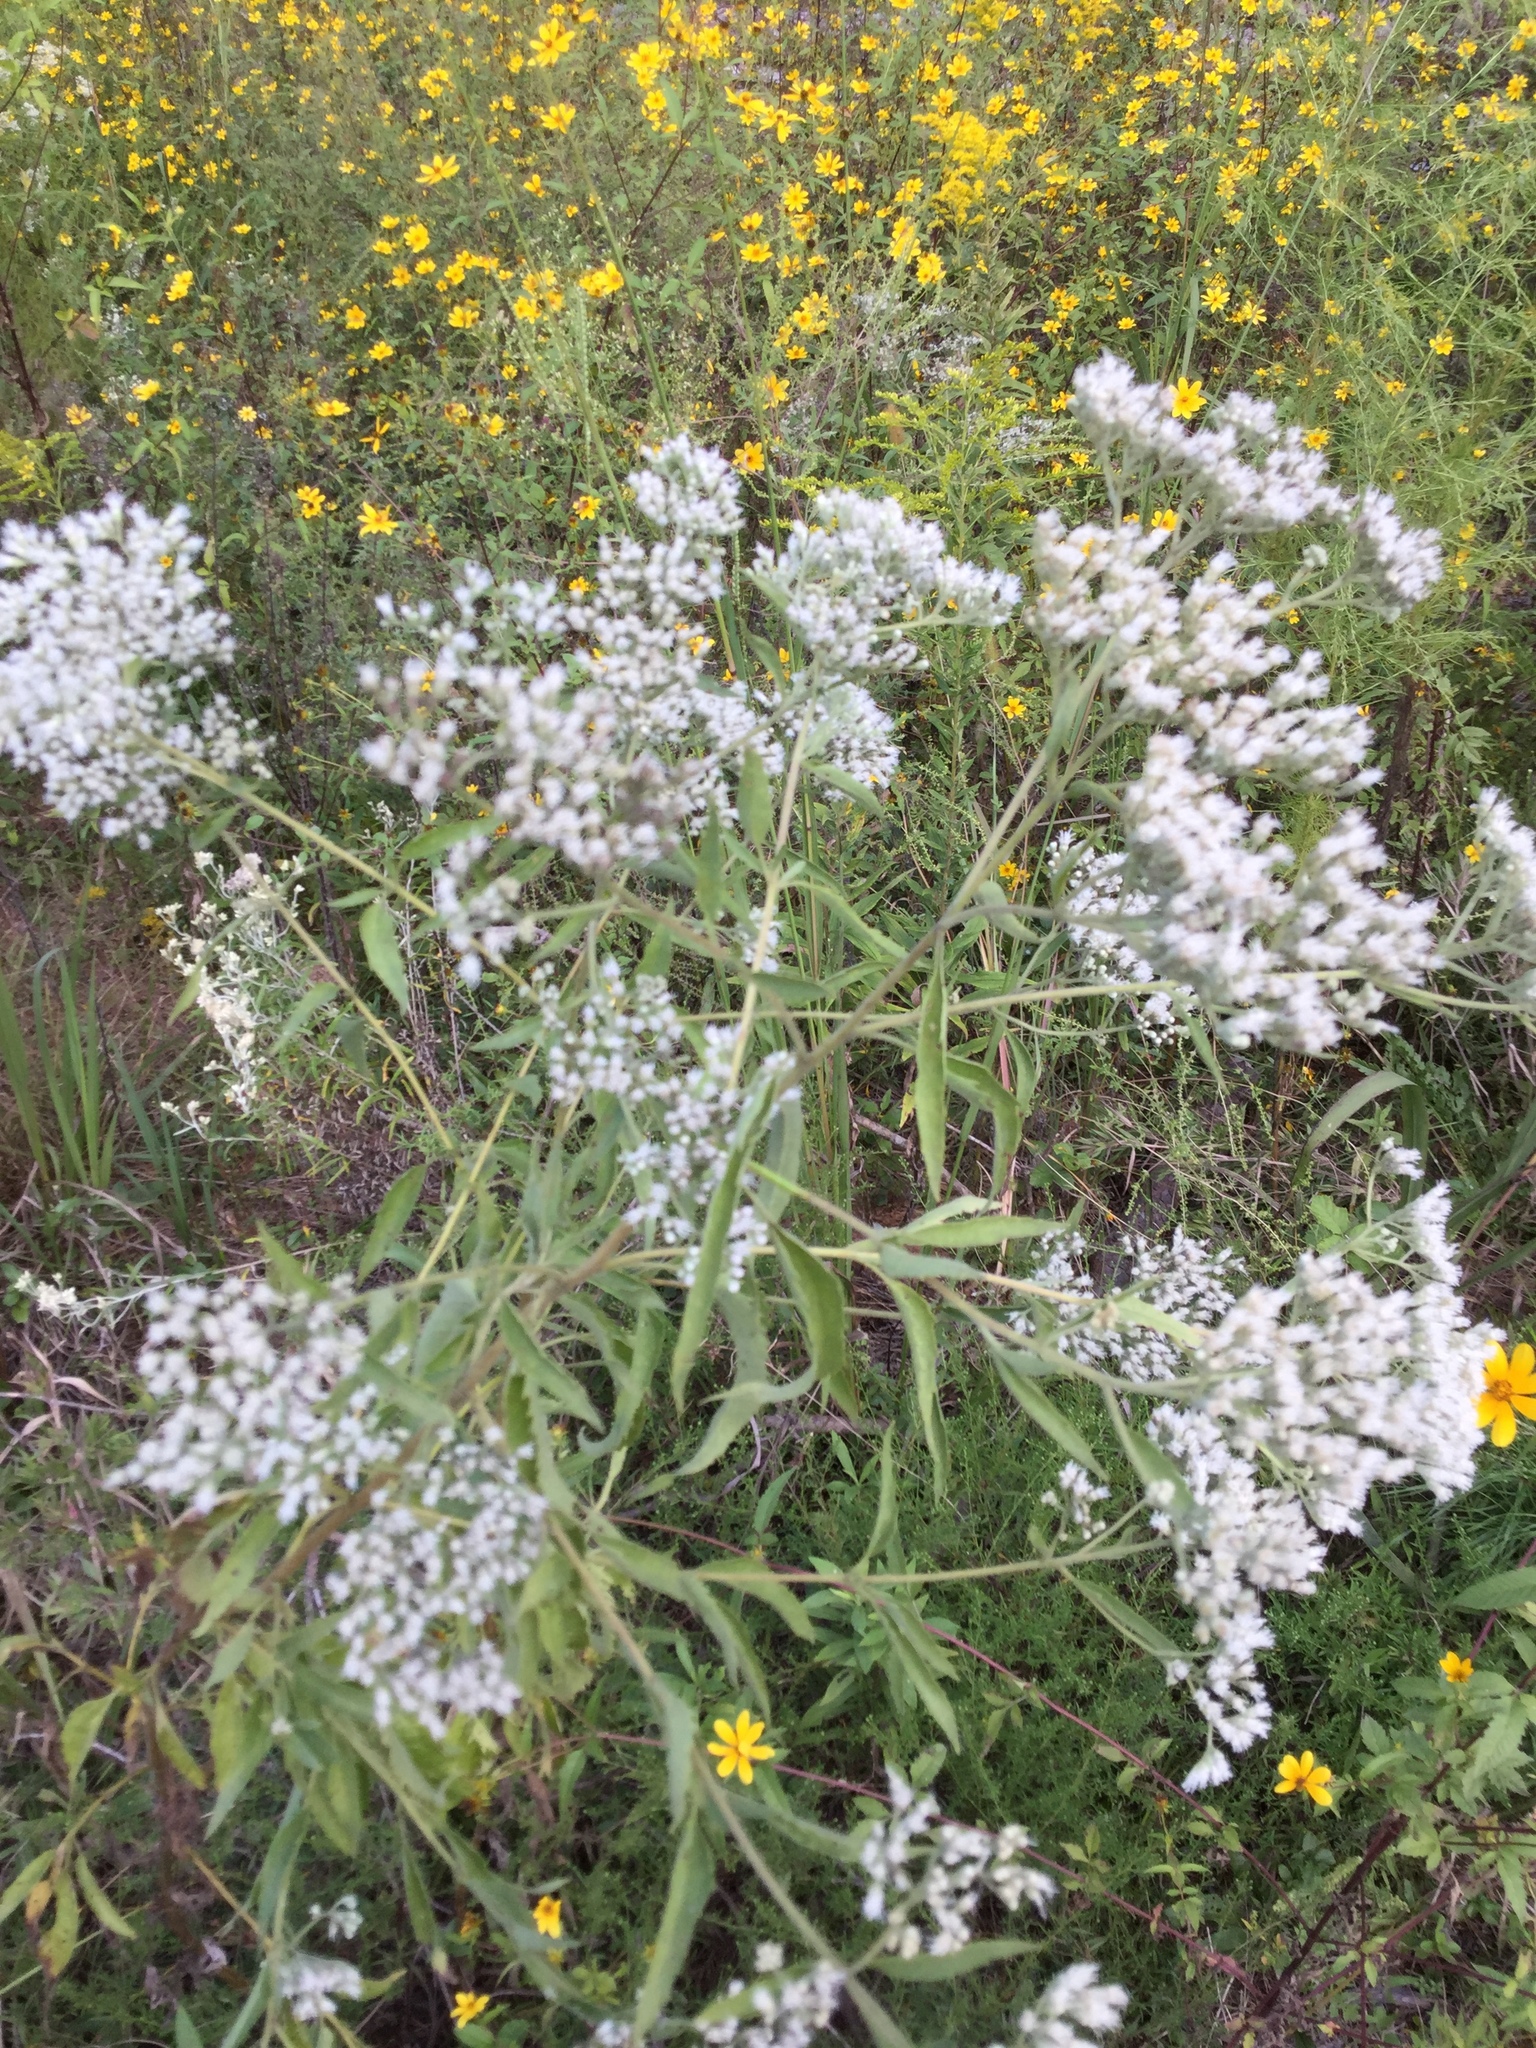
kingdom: Plantae
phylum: Tracheophyta
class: Magnoliopsida
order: Asterales
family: Asteraceae
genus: Eupatorium
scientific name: Eupatorium serotinum
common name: Late boneset
